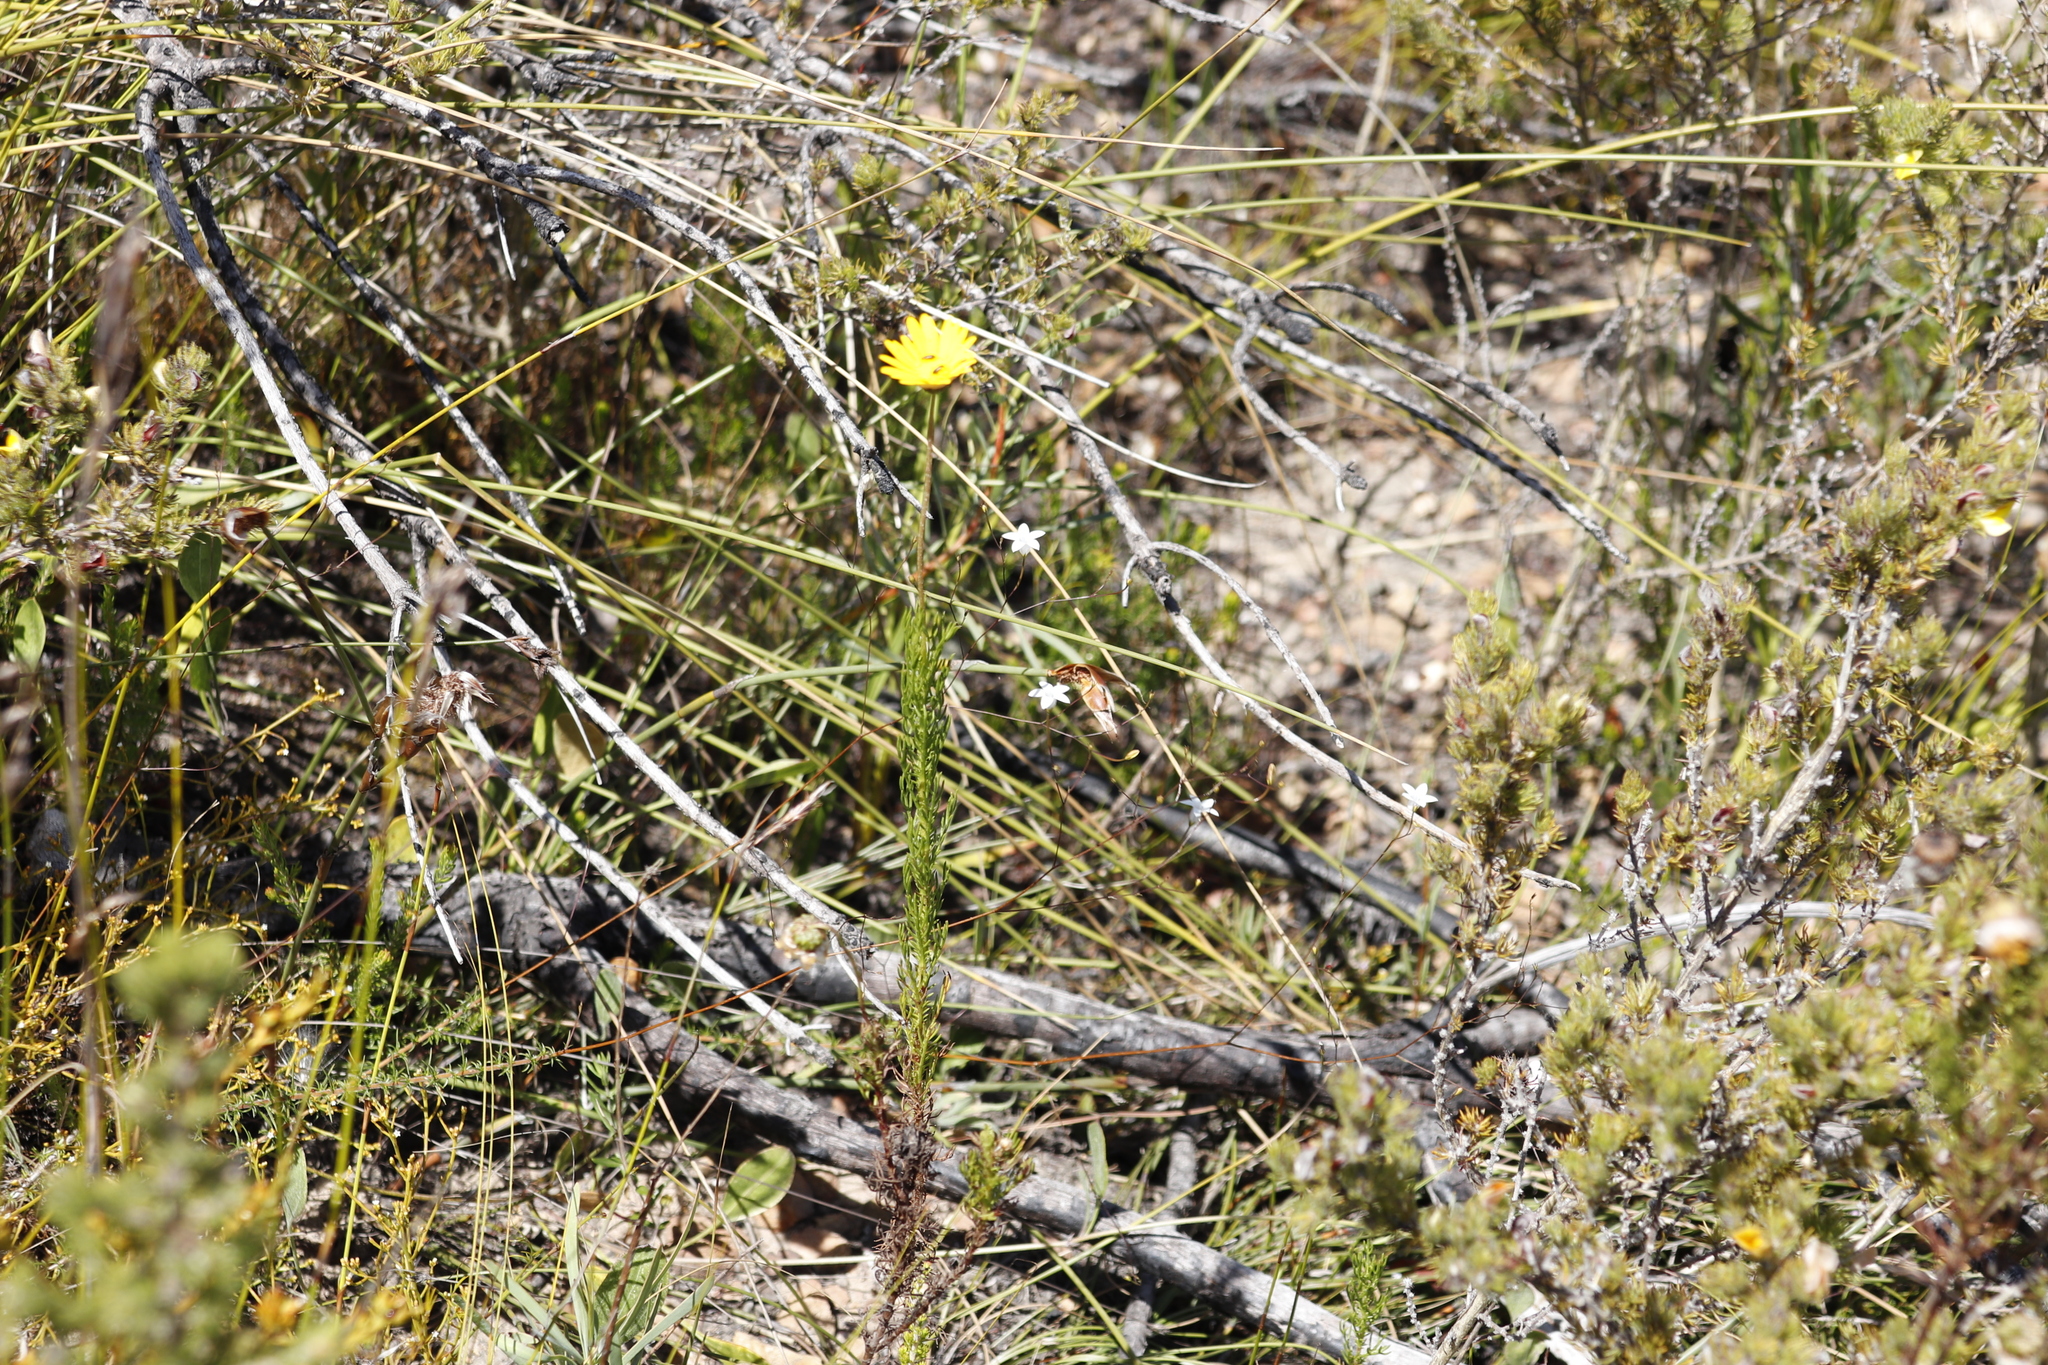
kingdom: Plantae
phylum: Tracheophyta
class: Magnoliopsida
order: Asterales
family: Asteraceae
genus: Ursinia
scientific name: Ursinia punctata
